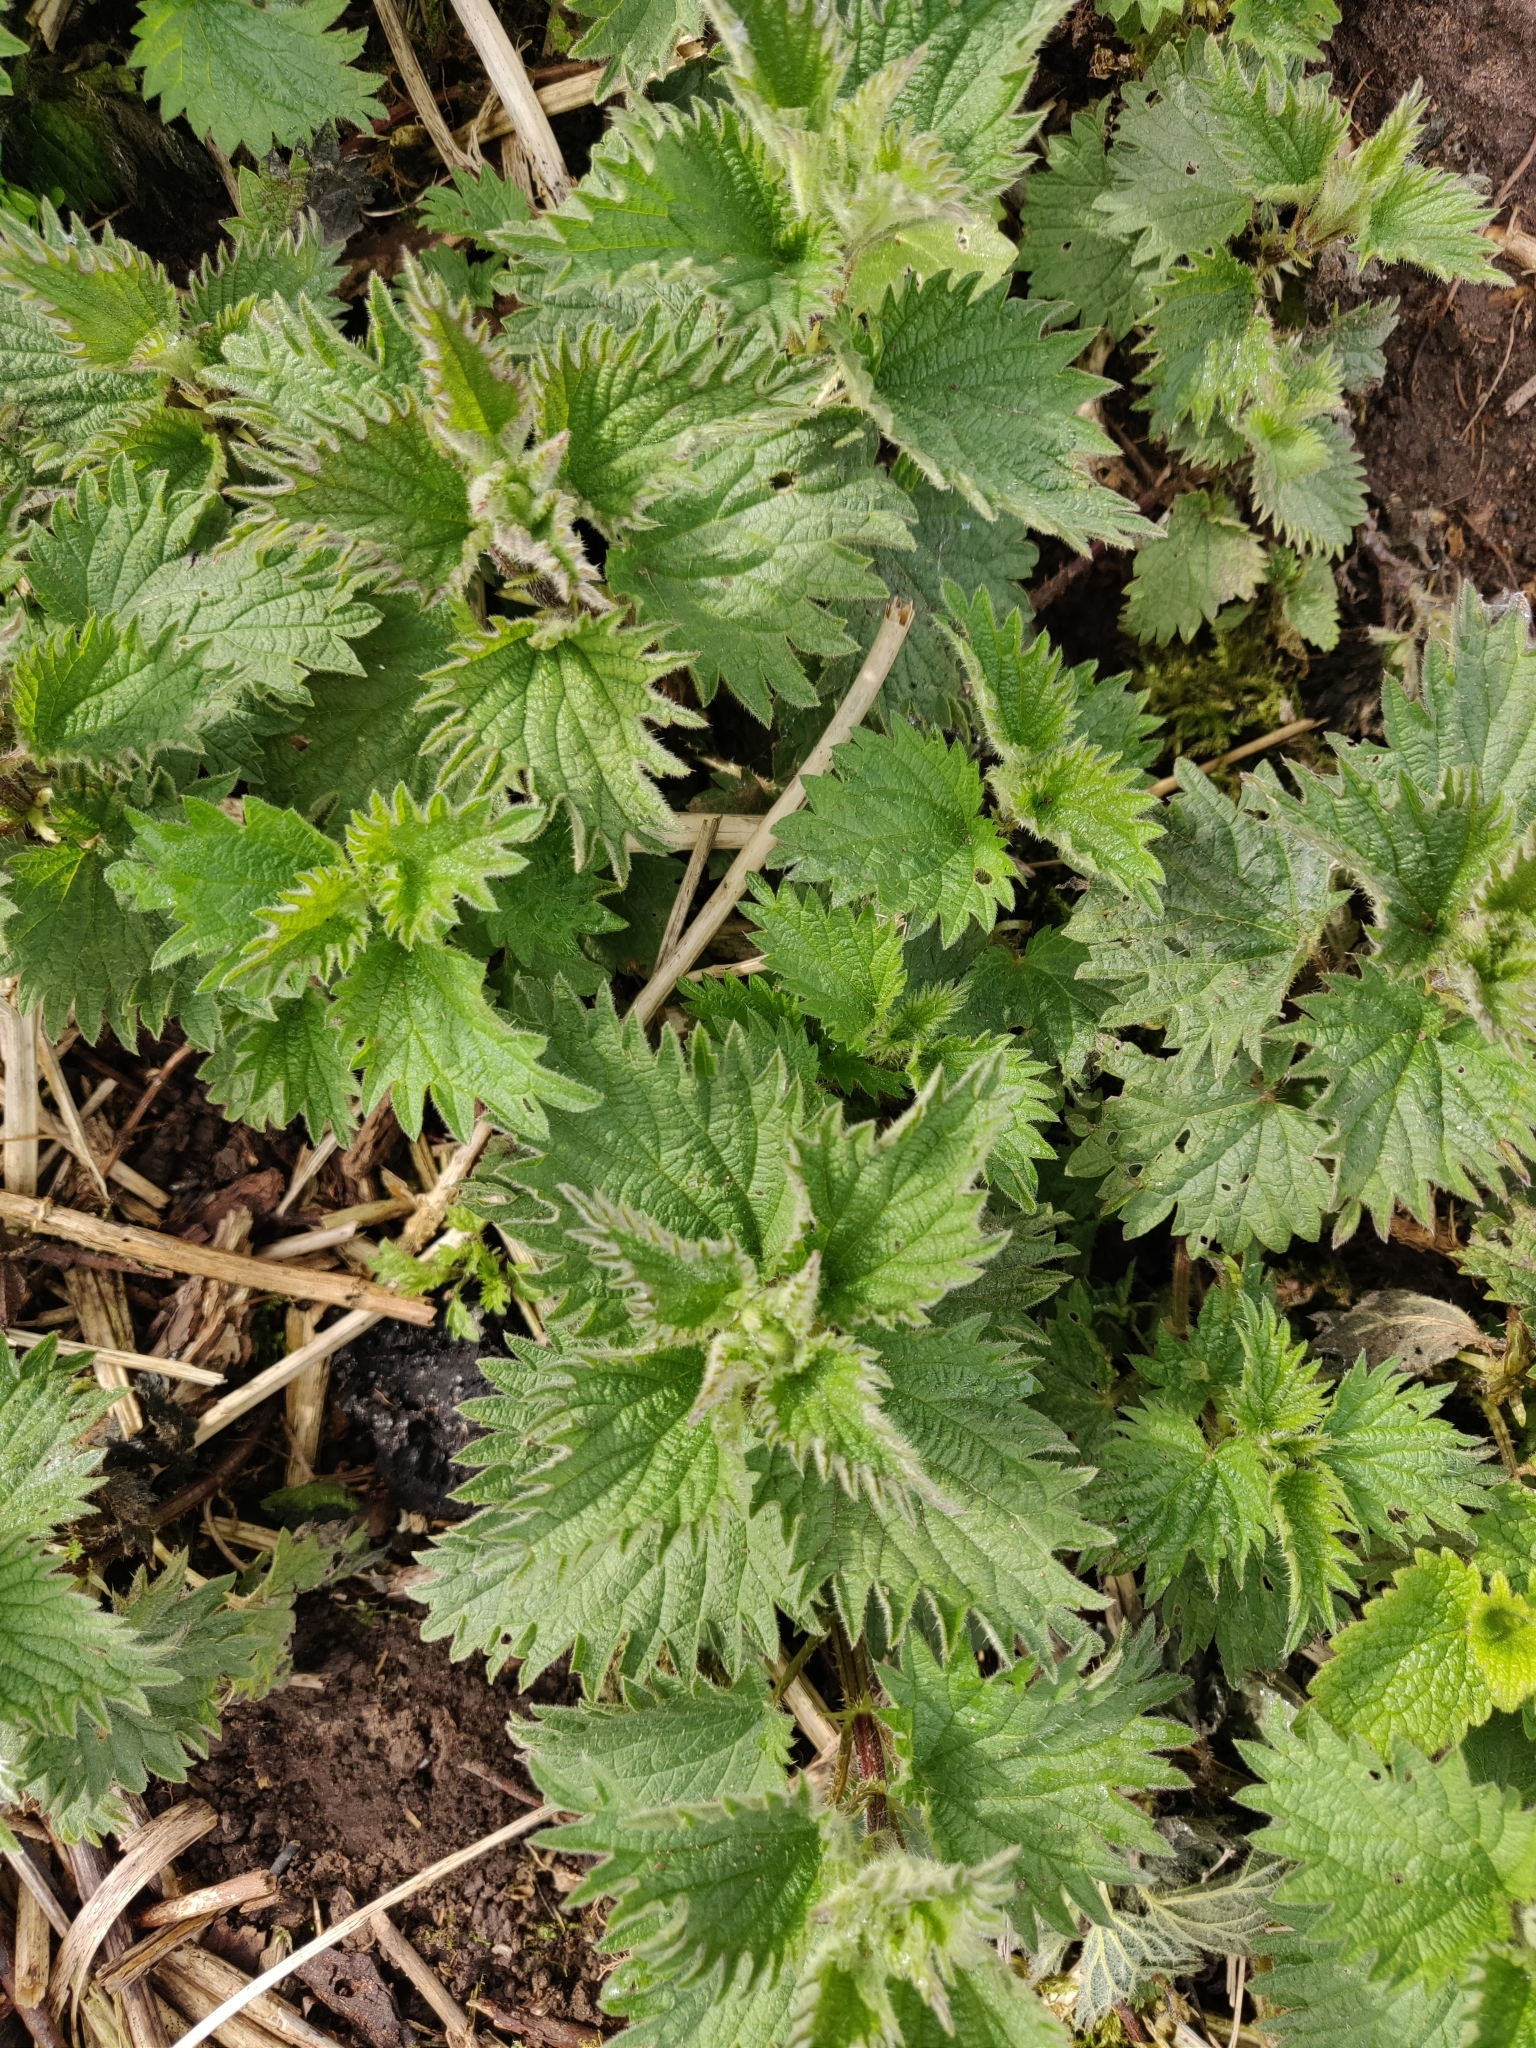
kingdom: Plantae
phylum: Tracheophyta
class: Magnoliopsida
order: Rosales
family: Urticaceae
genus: Urtica
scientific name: Urtica dioica
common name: Common nettle
